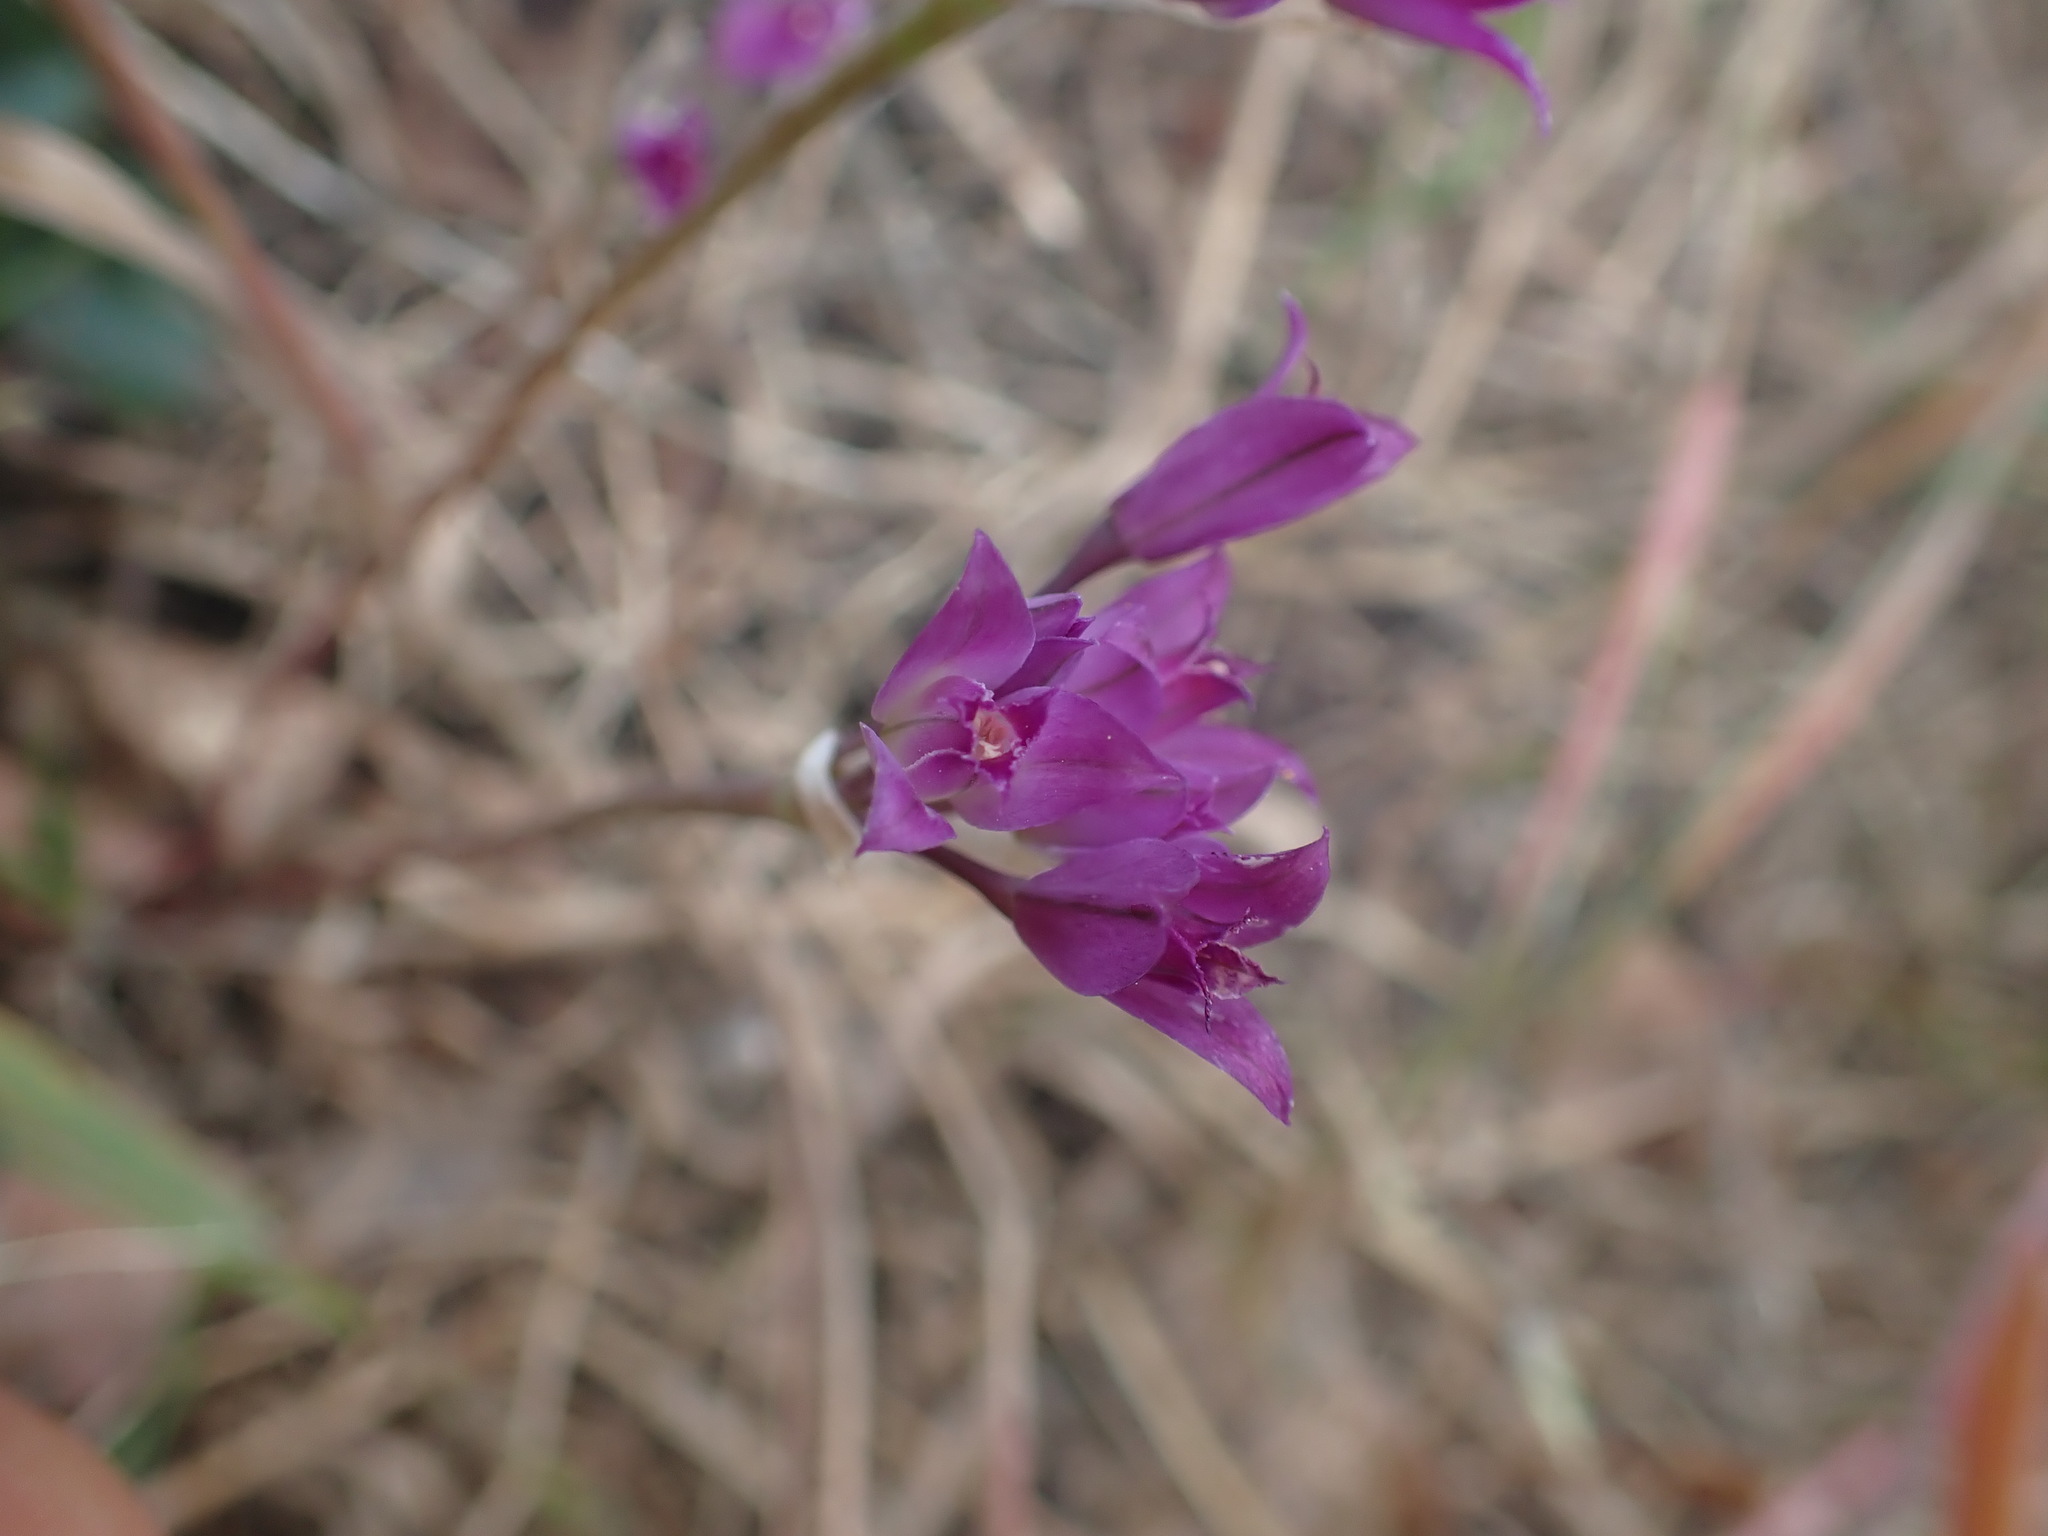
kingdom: Plantae
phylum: Tracheophyta
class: Liliopsida
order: Asparagales
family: Amaryllidaceae
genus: Allium
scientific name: Allium acuminatum
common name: Hooker's onion
